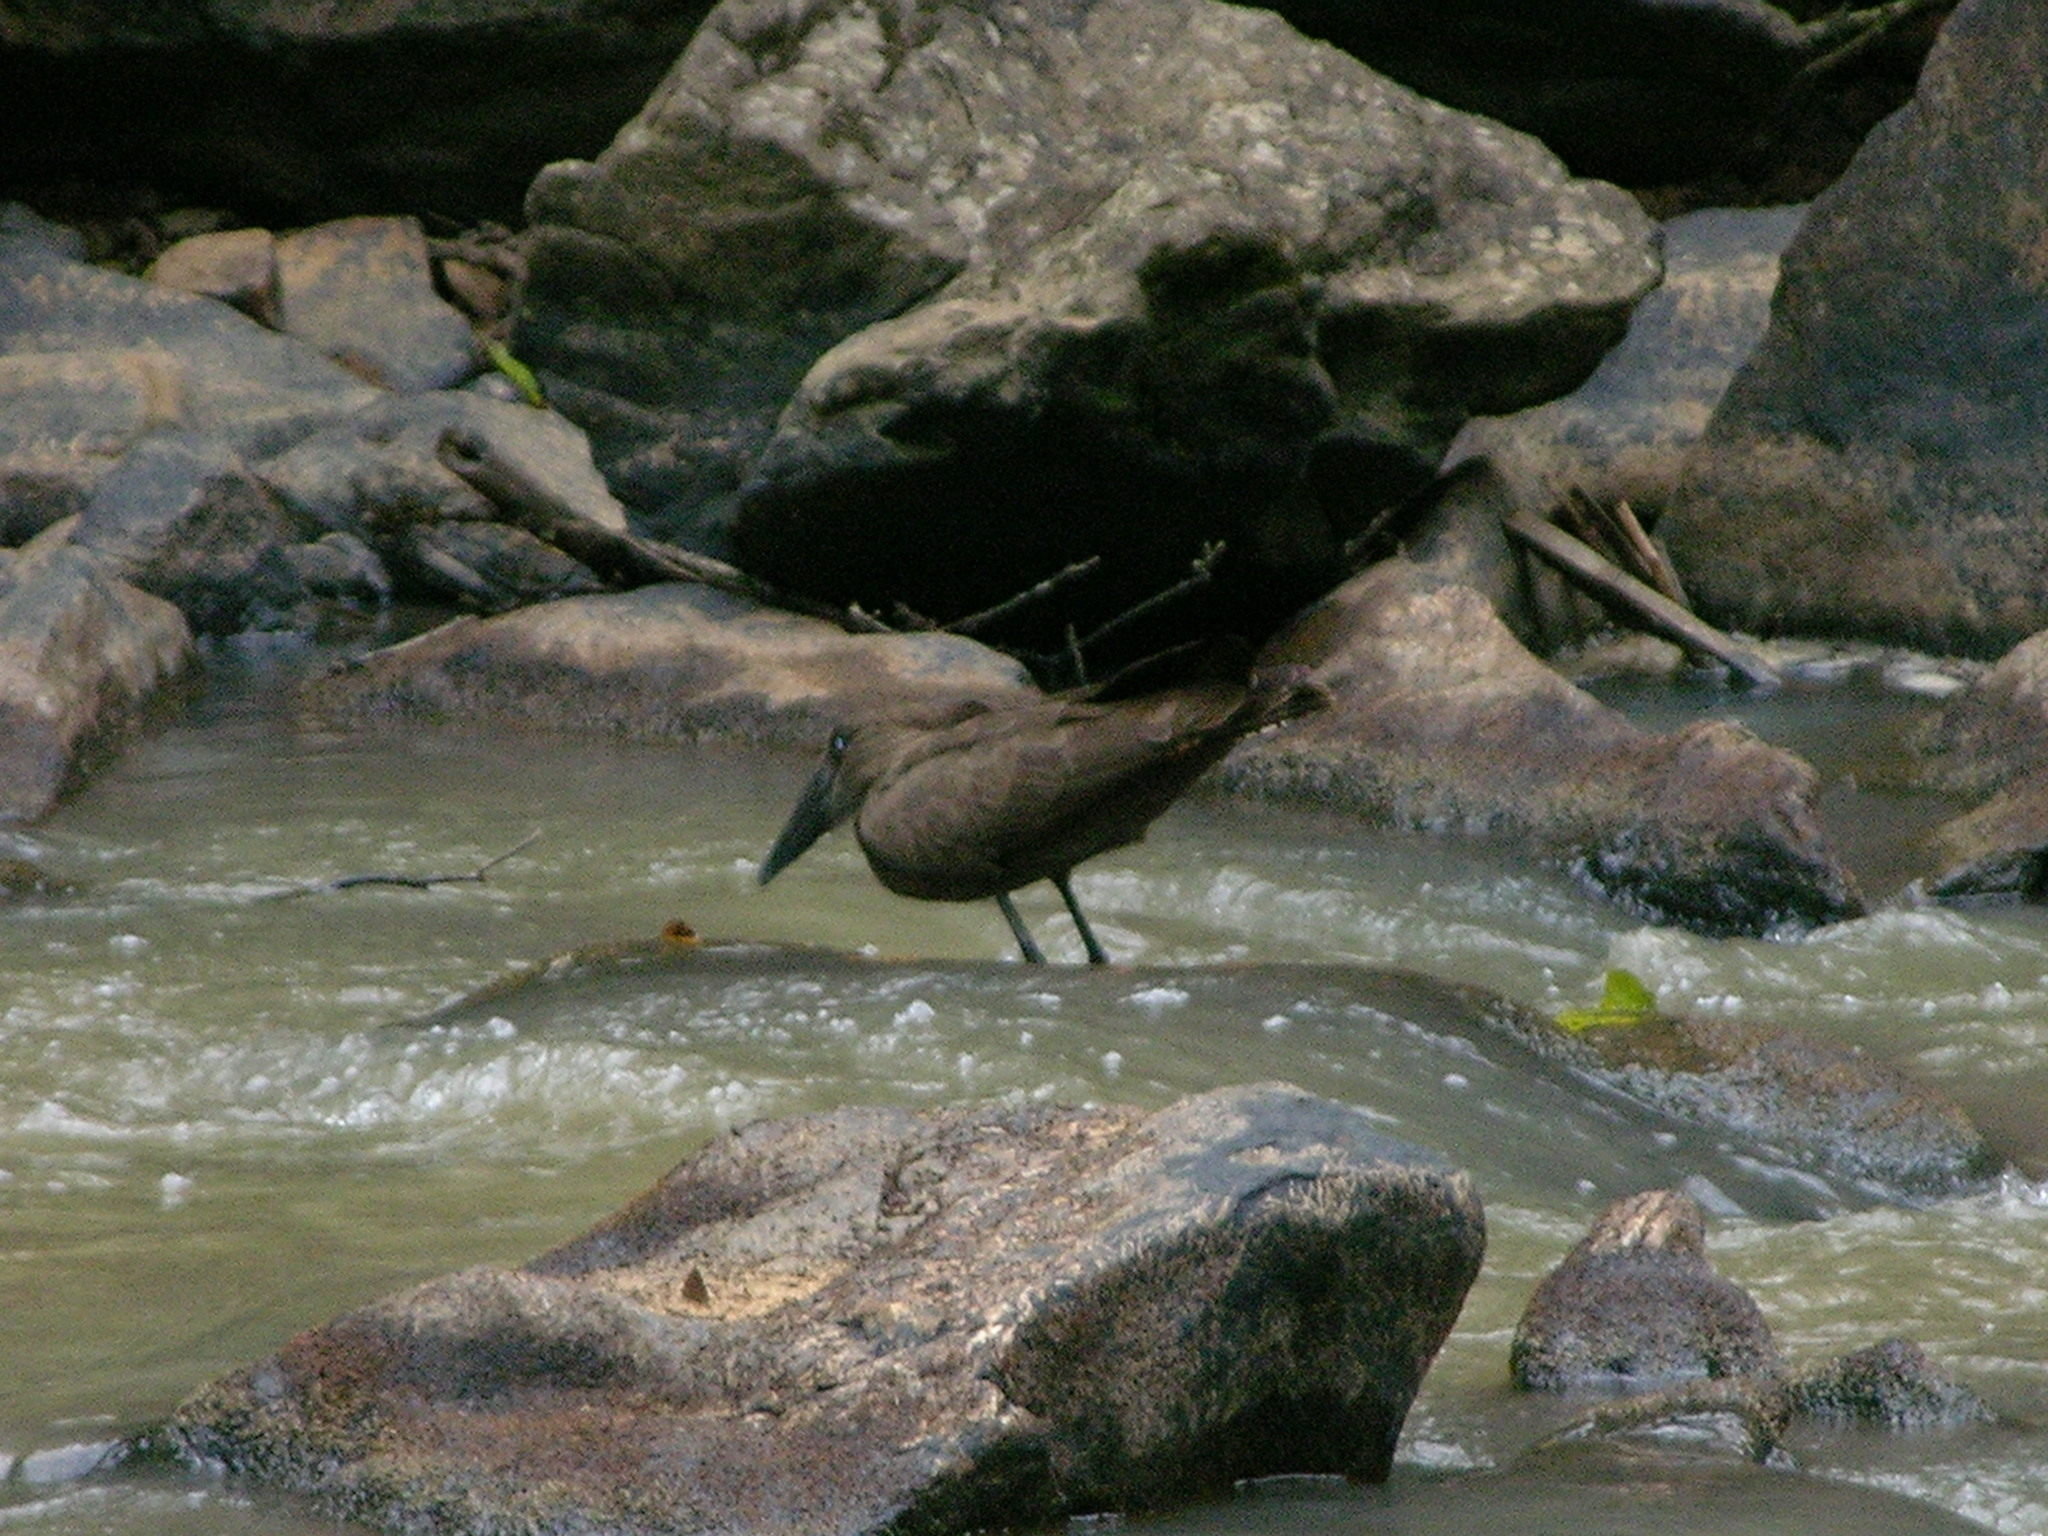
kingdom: Animalia
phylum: Chordata
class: Aves
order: Pelecaniformes
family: Scopidae
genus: Scopus
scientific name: Scopus umbretta
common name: Hamerkop
